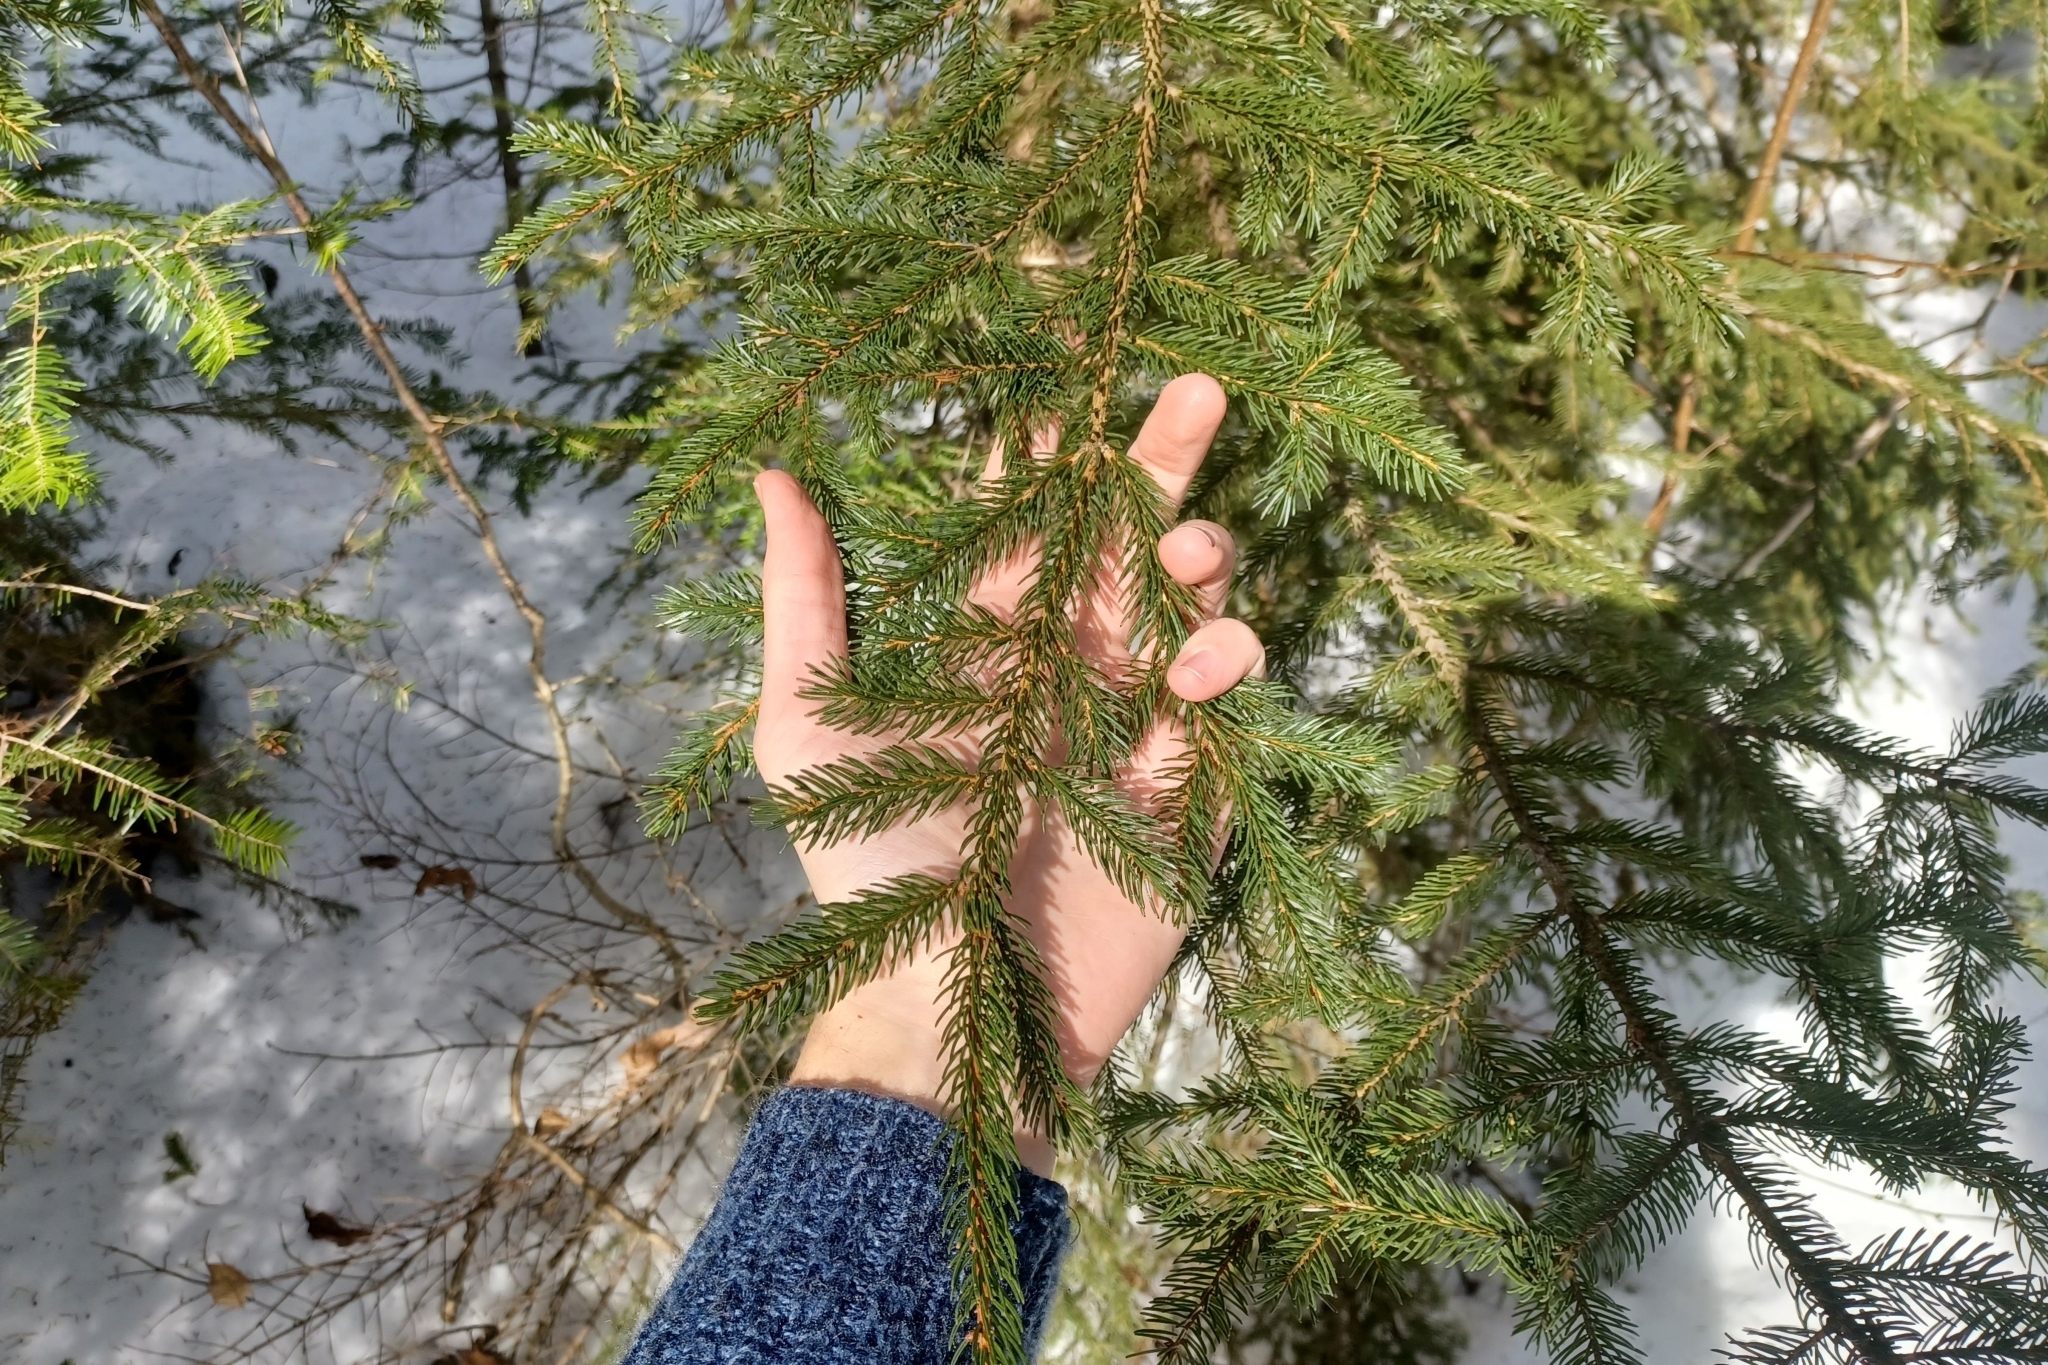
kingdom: Plantae
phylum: Tracheophyta
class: Pinopsida
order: Pinales
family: Pinaceae
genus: Picea
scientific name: Picea rubens
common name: Red spruce
